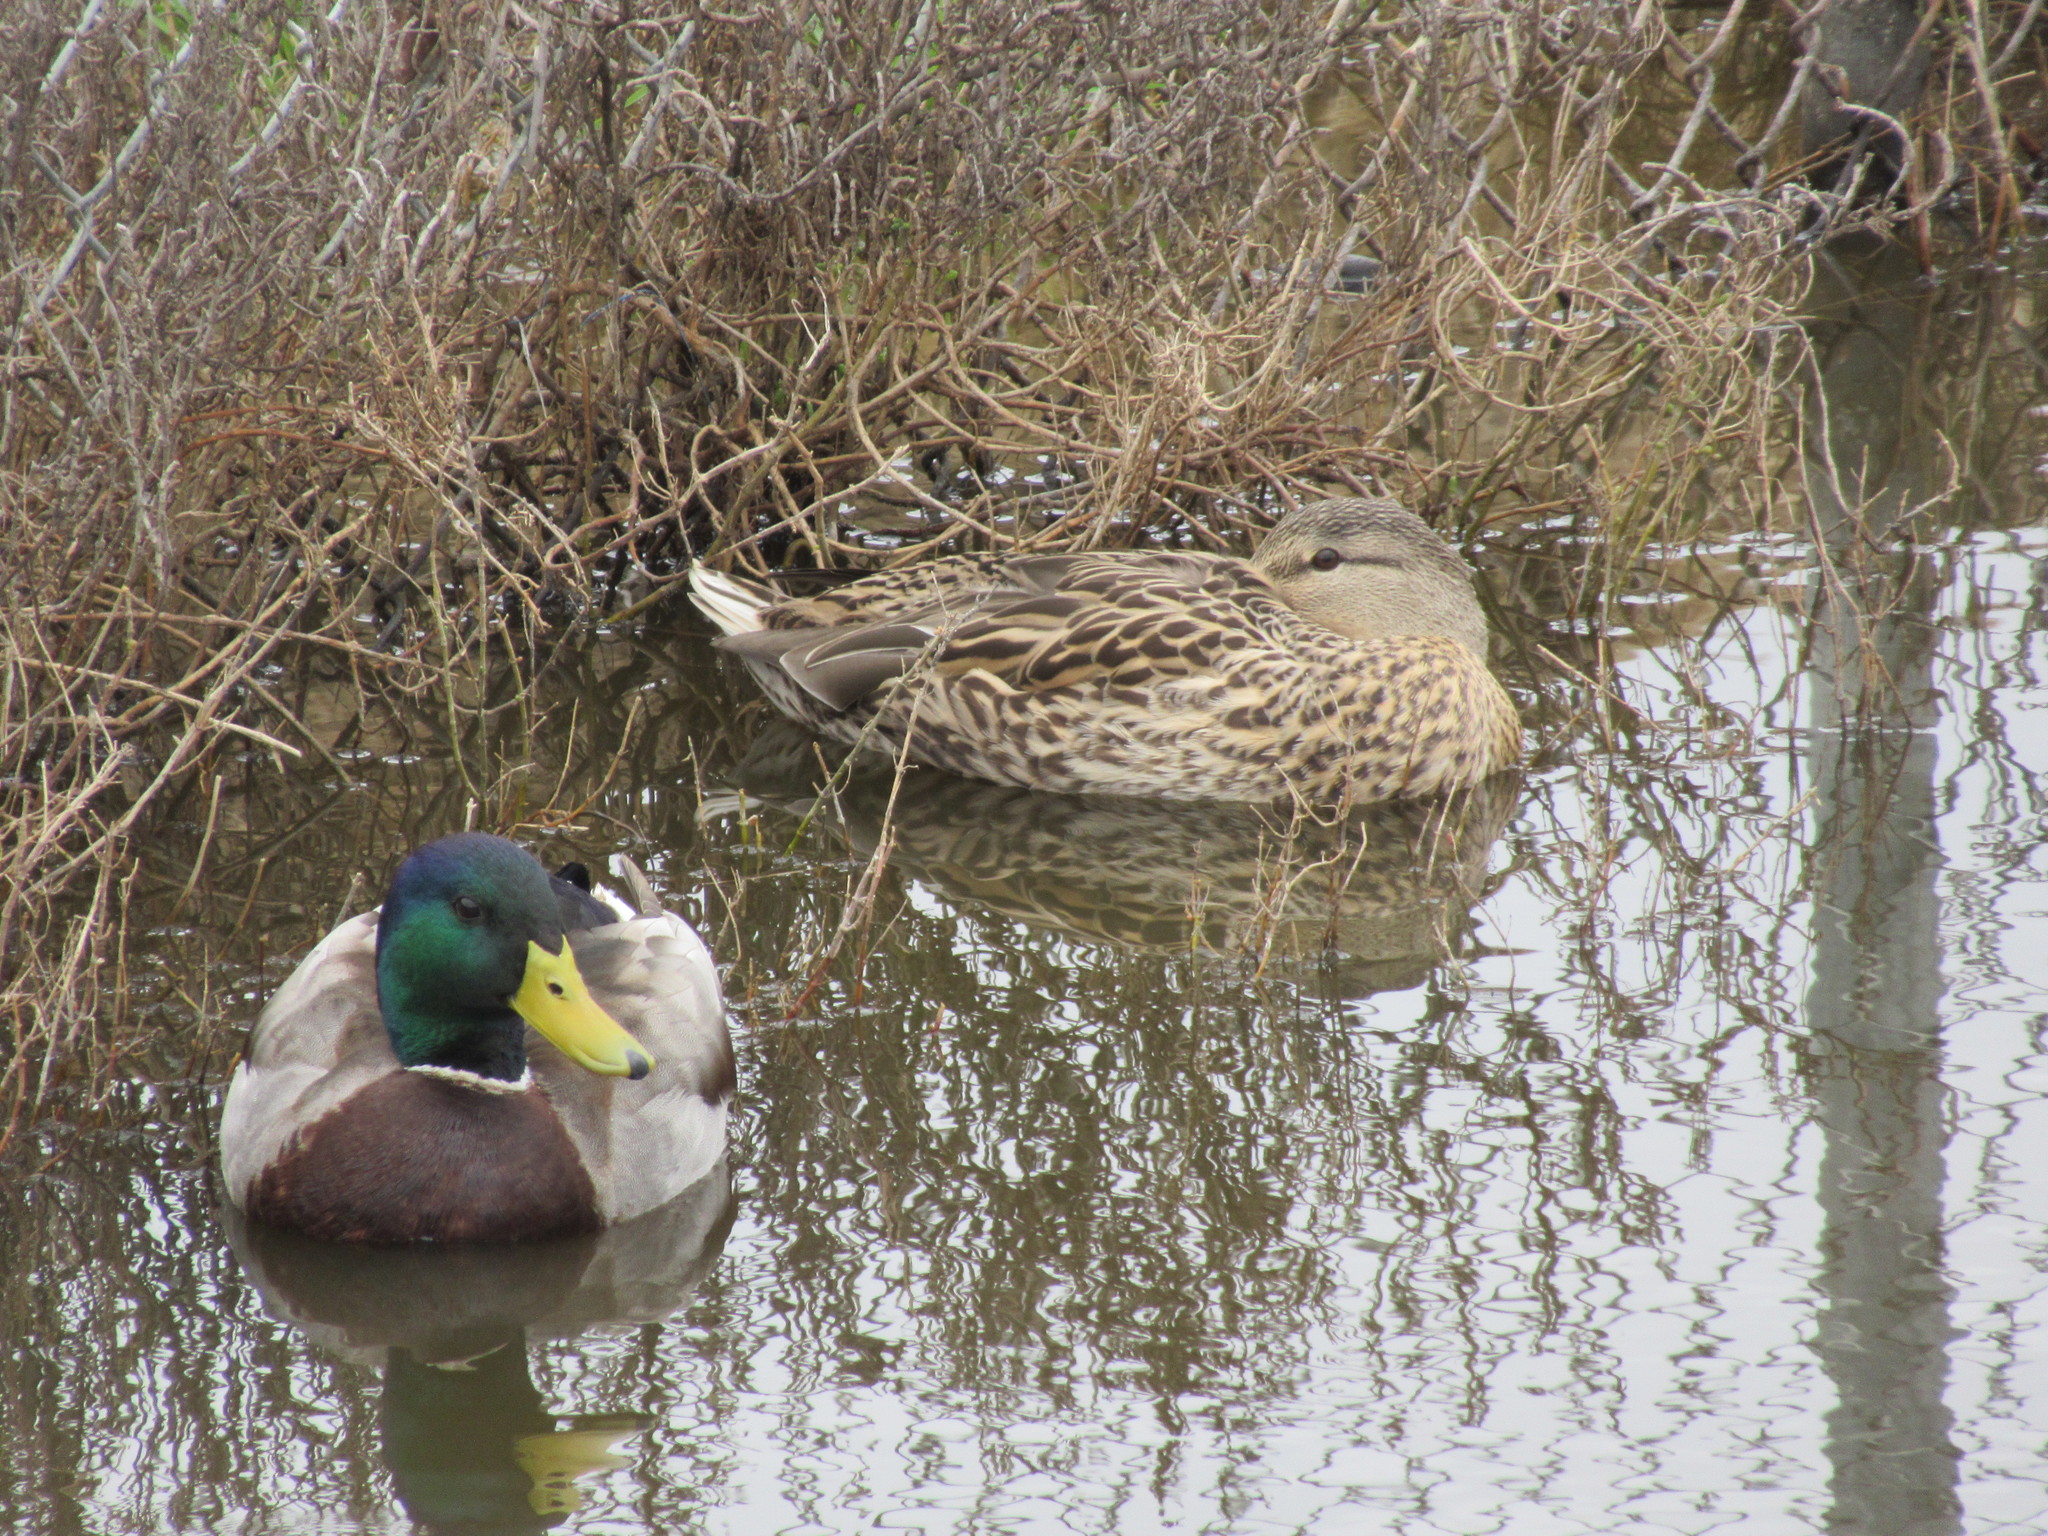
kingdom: Animalia
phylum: Chordata
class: Aves
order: Anseriformes
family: Anatidae
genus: Anas
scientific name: Anas platyrhynchos
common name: Mallard
